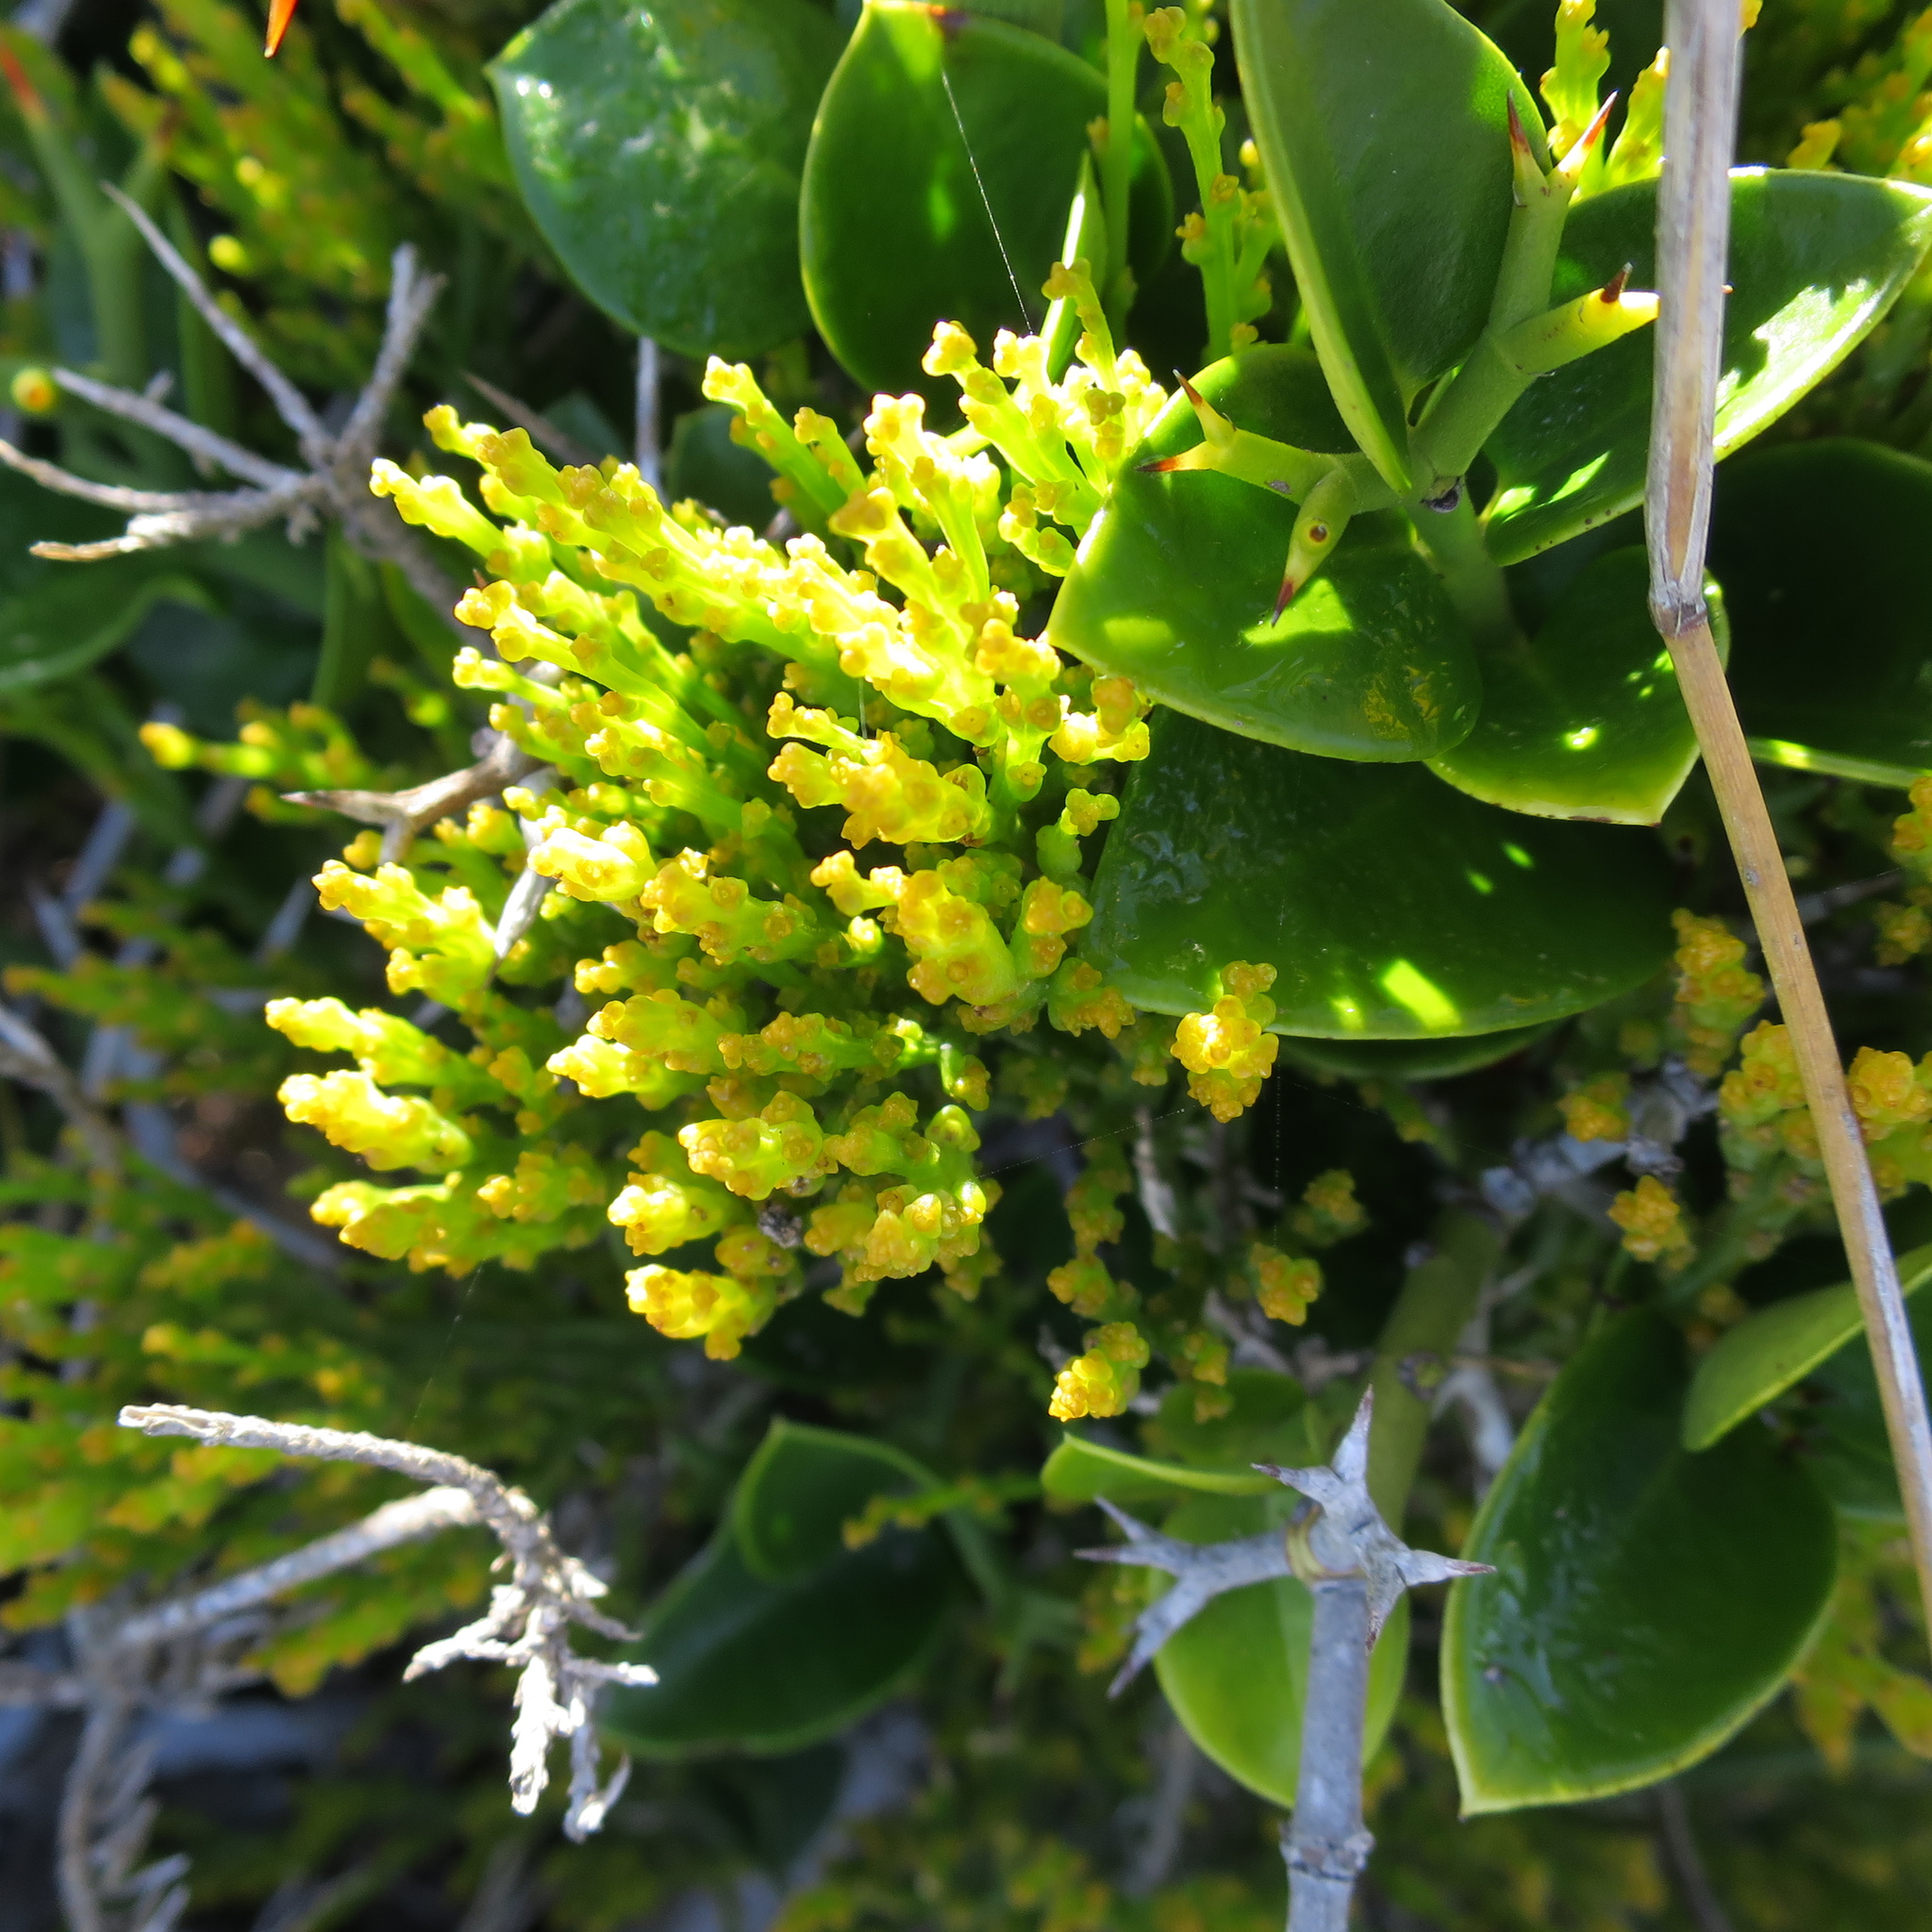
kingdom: Plantae
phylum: Tracheophyta
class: Magnoliopsida
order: Santalales
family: Thesiaceae
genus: Thesium
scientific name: Thesium fragile
